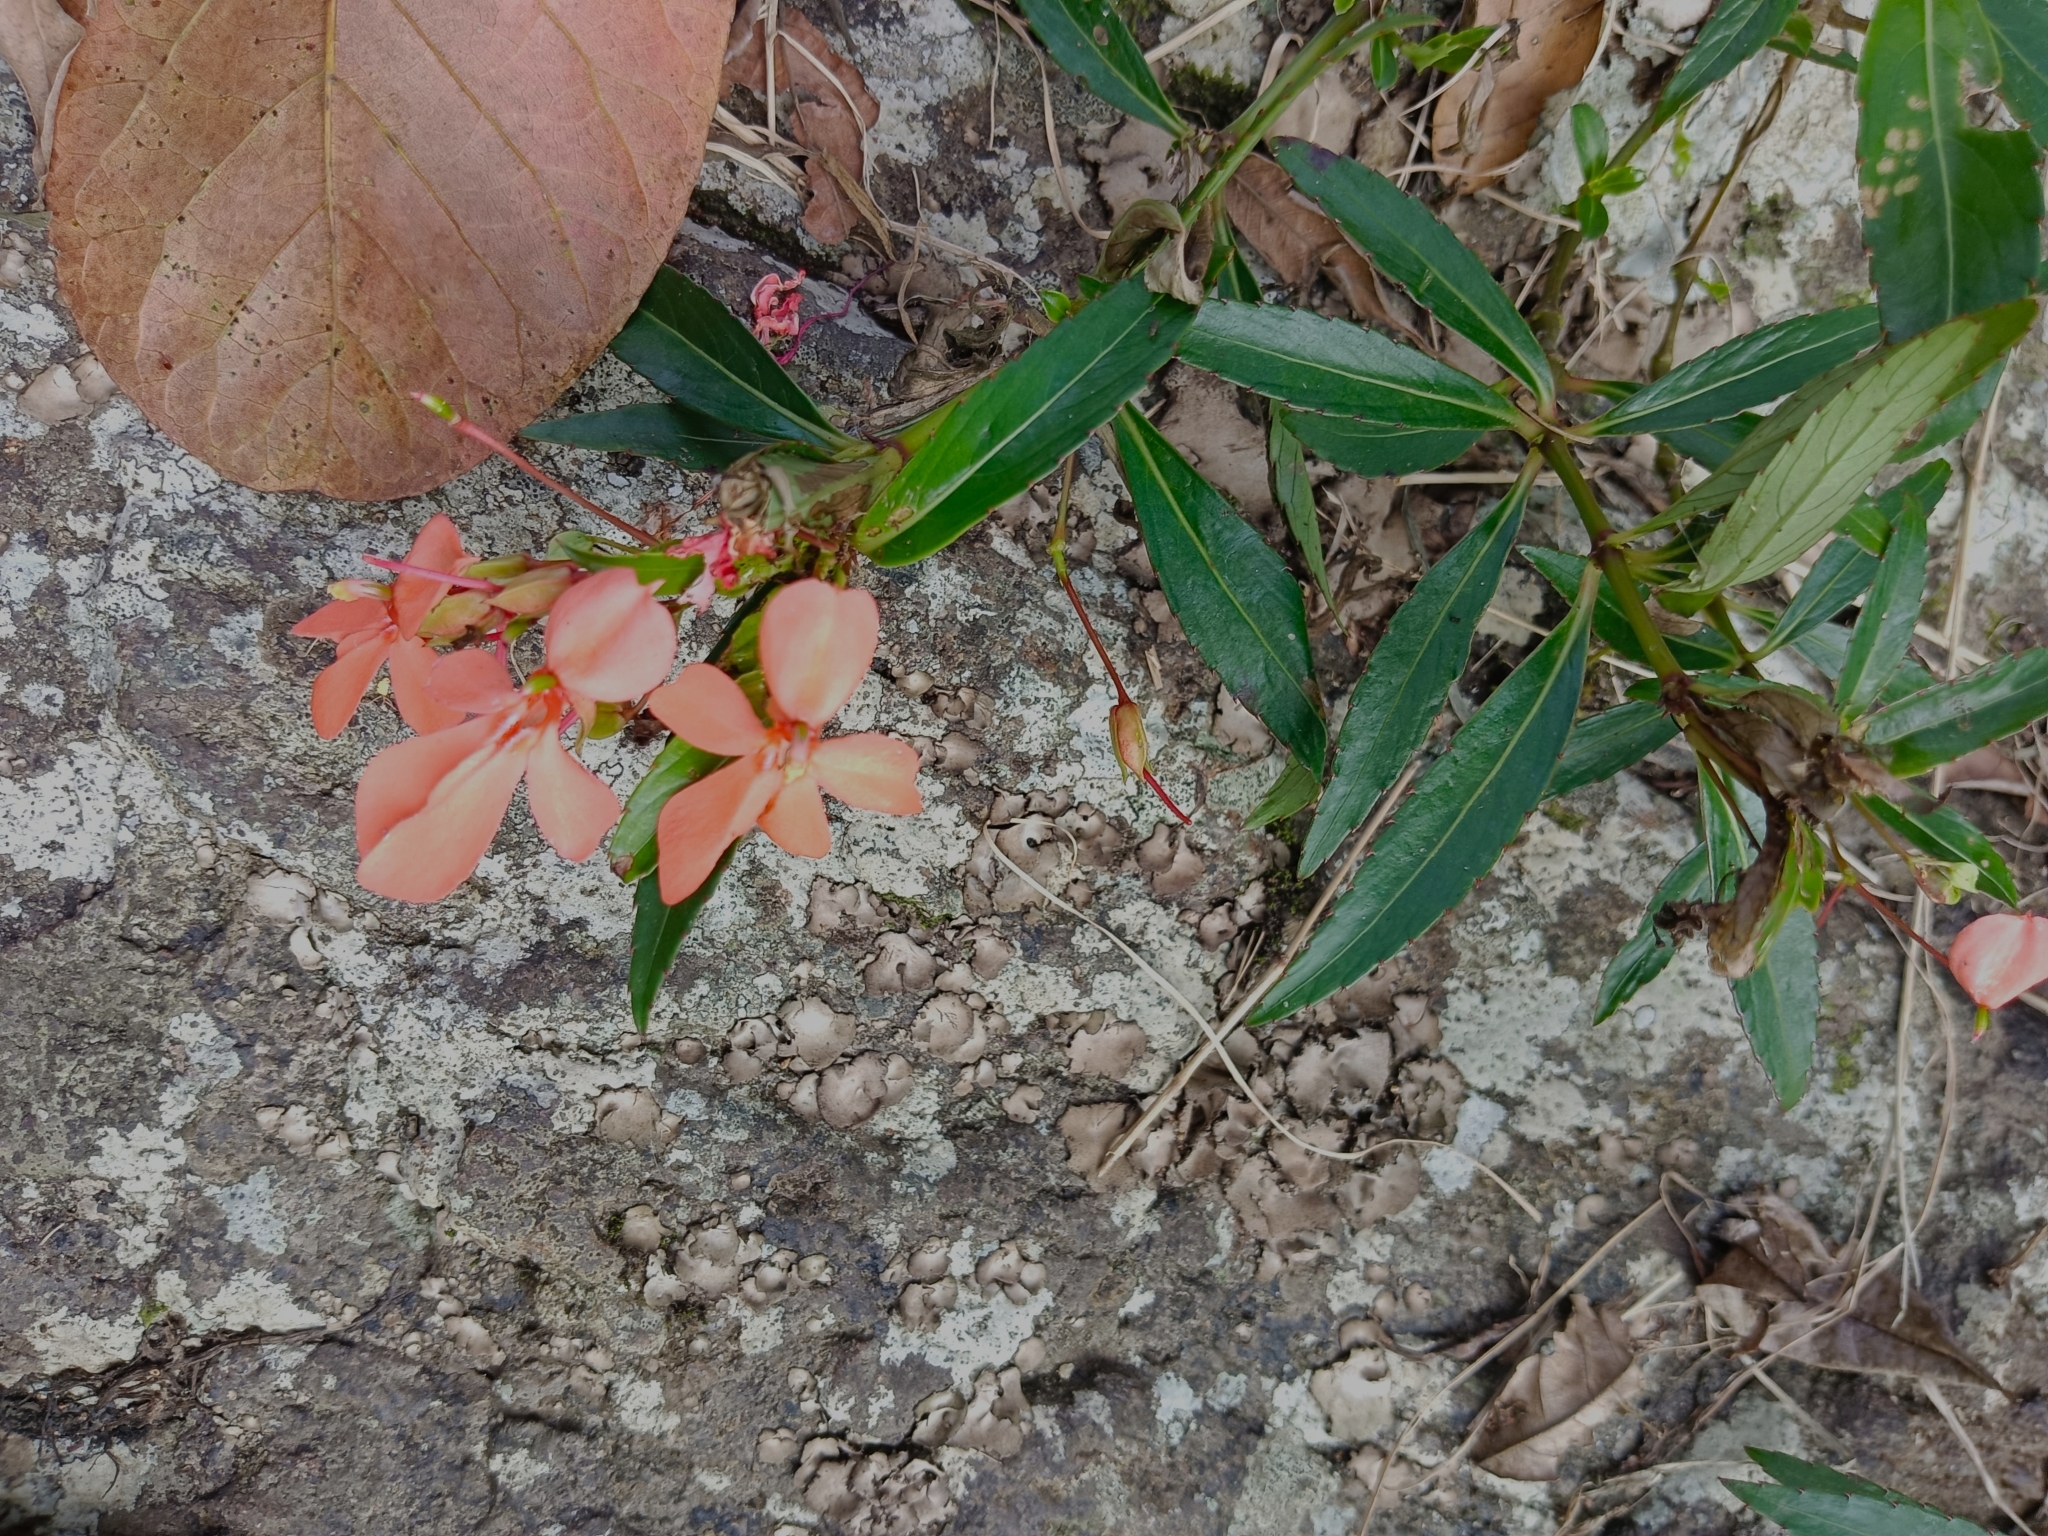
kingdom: Plantae
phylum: Tracheophyta
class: Magnoliopsida
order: Ericales
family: Balsaminaceae
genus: Impatiens
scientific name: Impatiens verticillata
